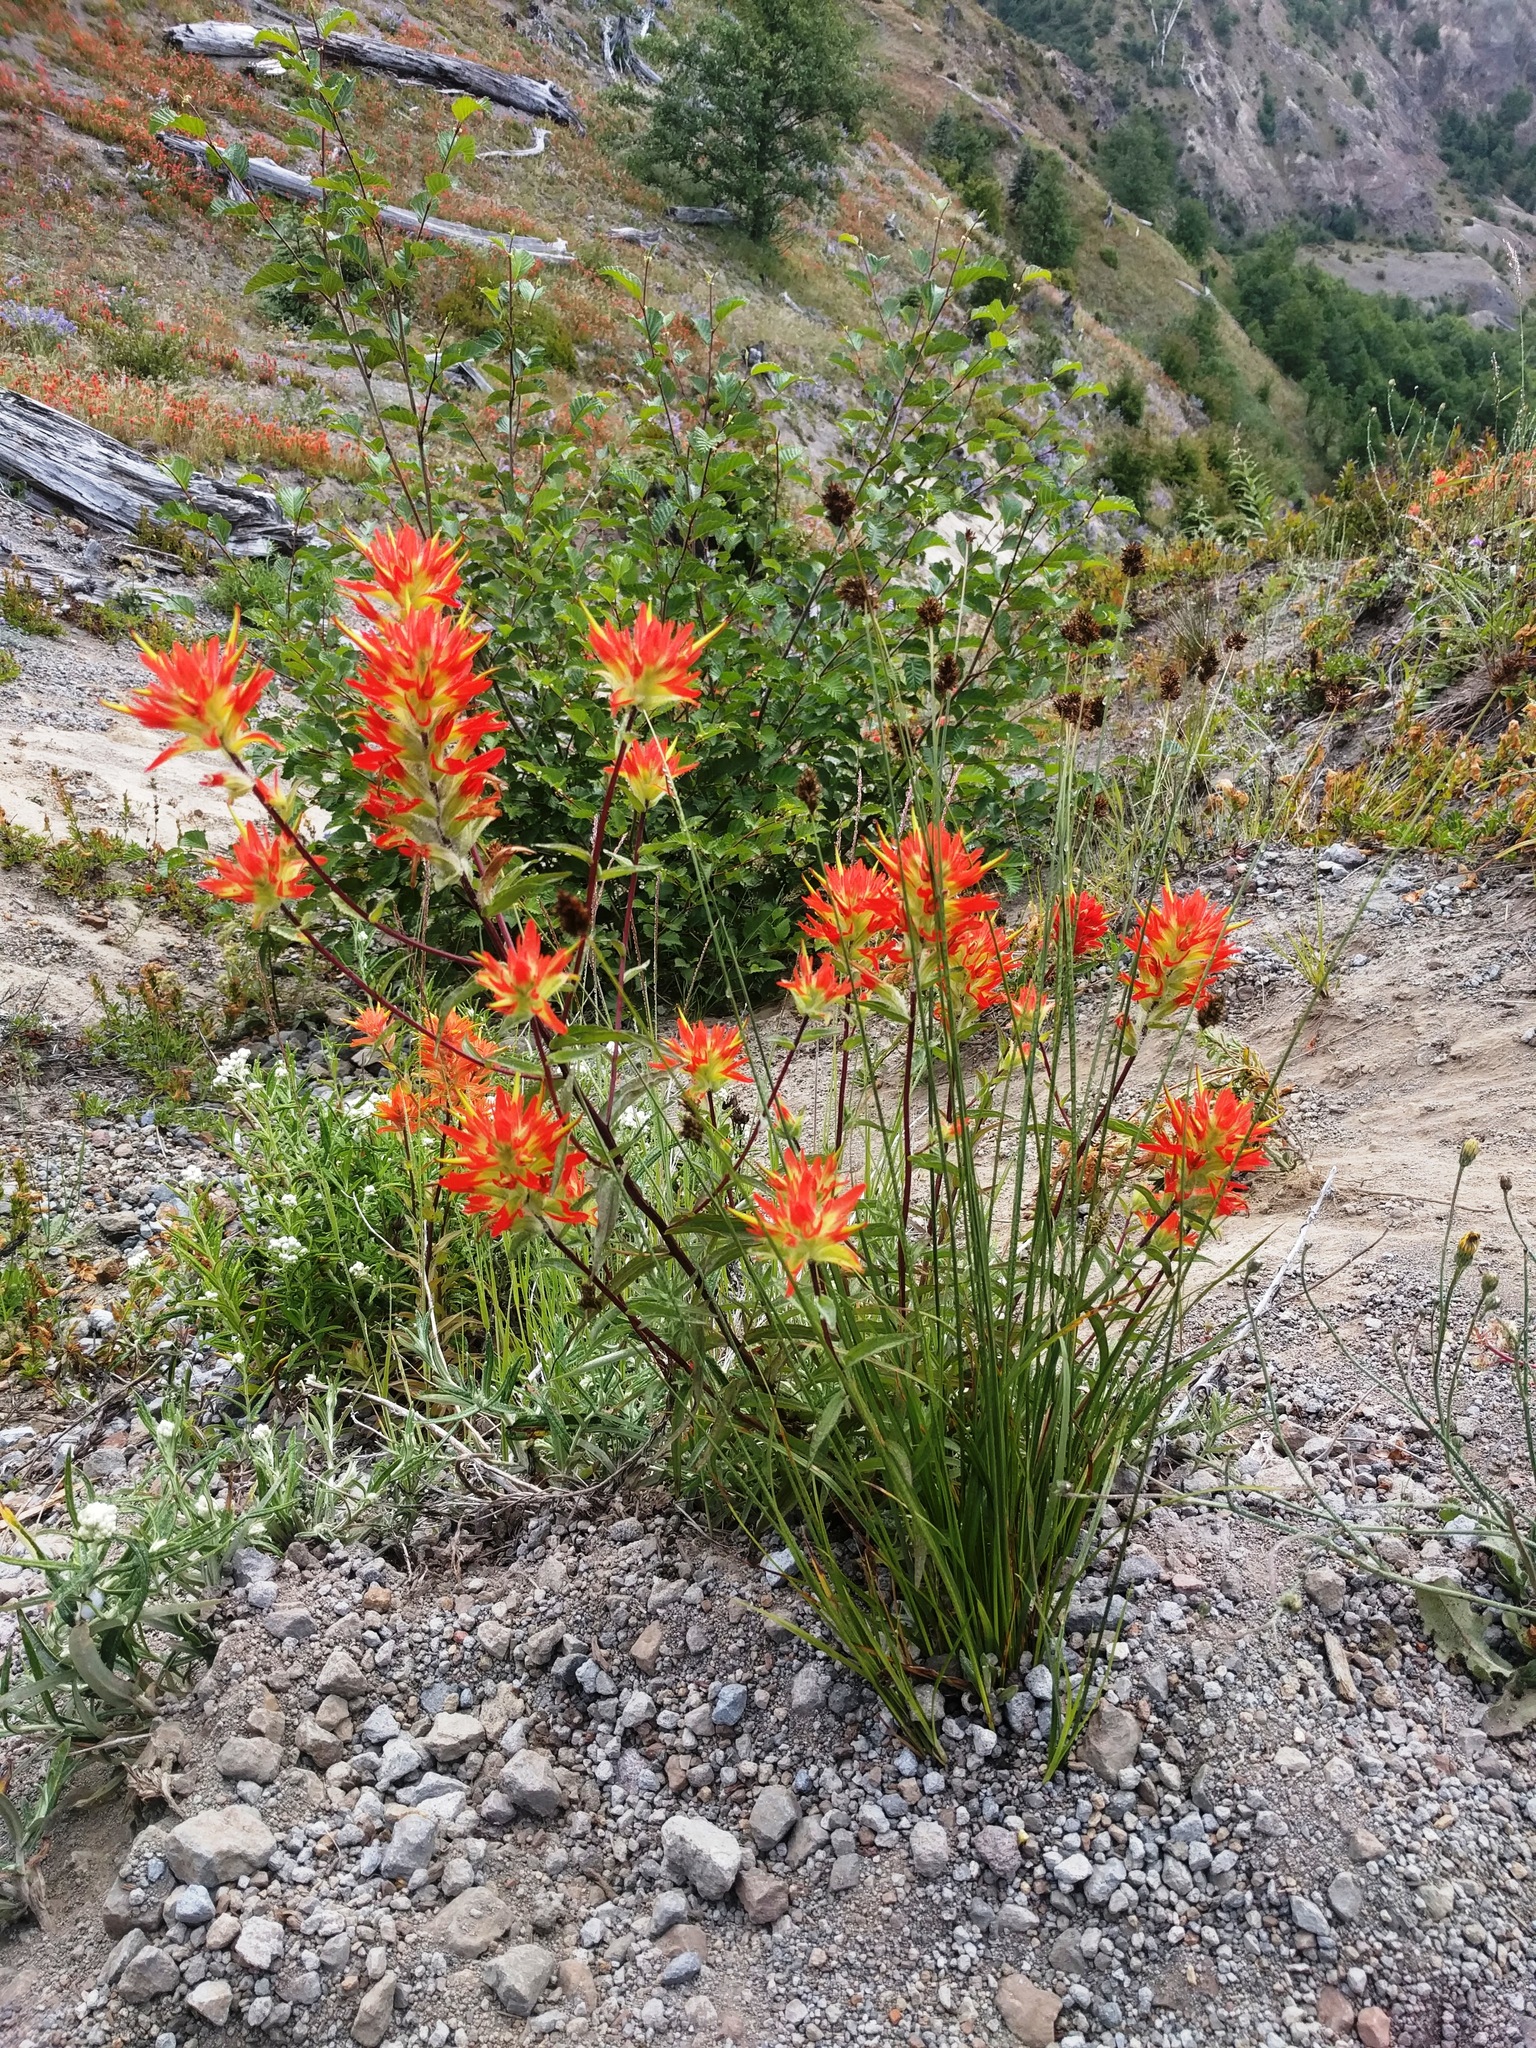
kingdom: Plantae
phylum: Tracheophyta
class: Magnoliopsida
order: Lamiales
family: Orobanchaceae
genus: Castilleja
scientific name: Castilleja miniata
